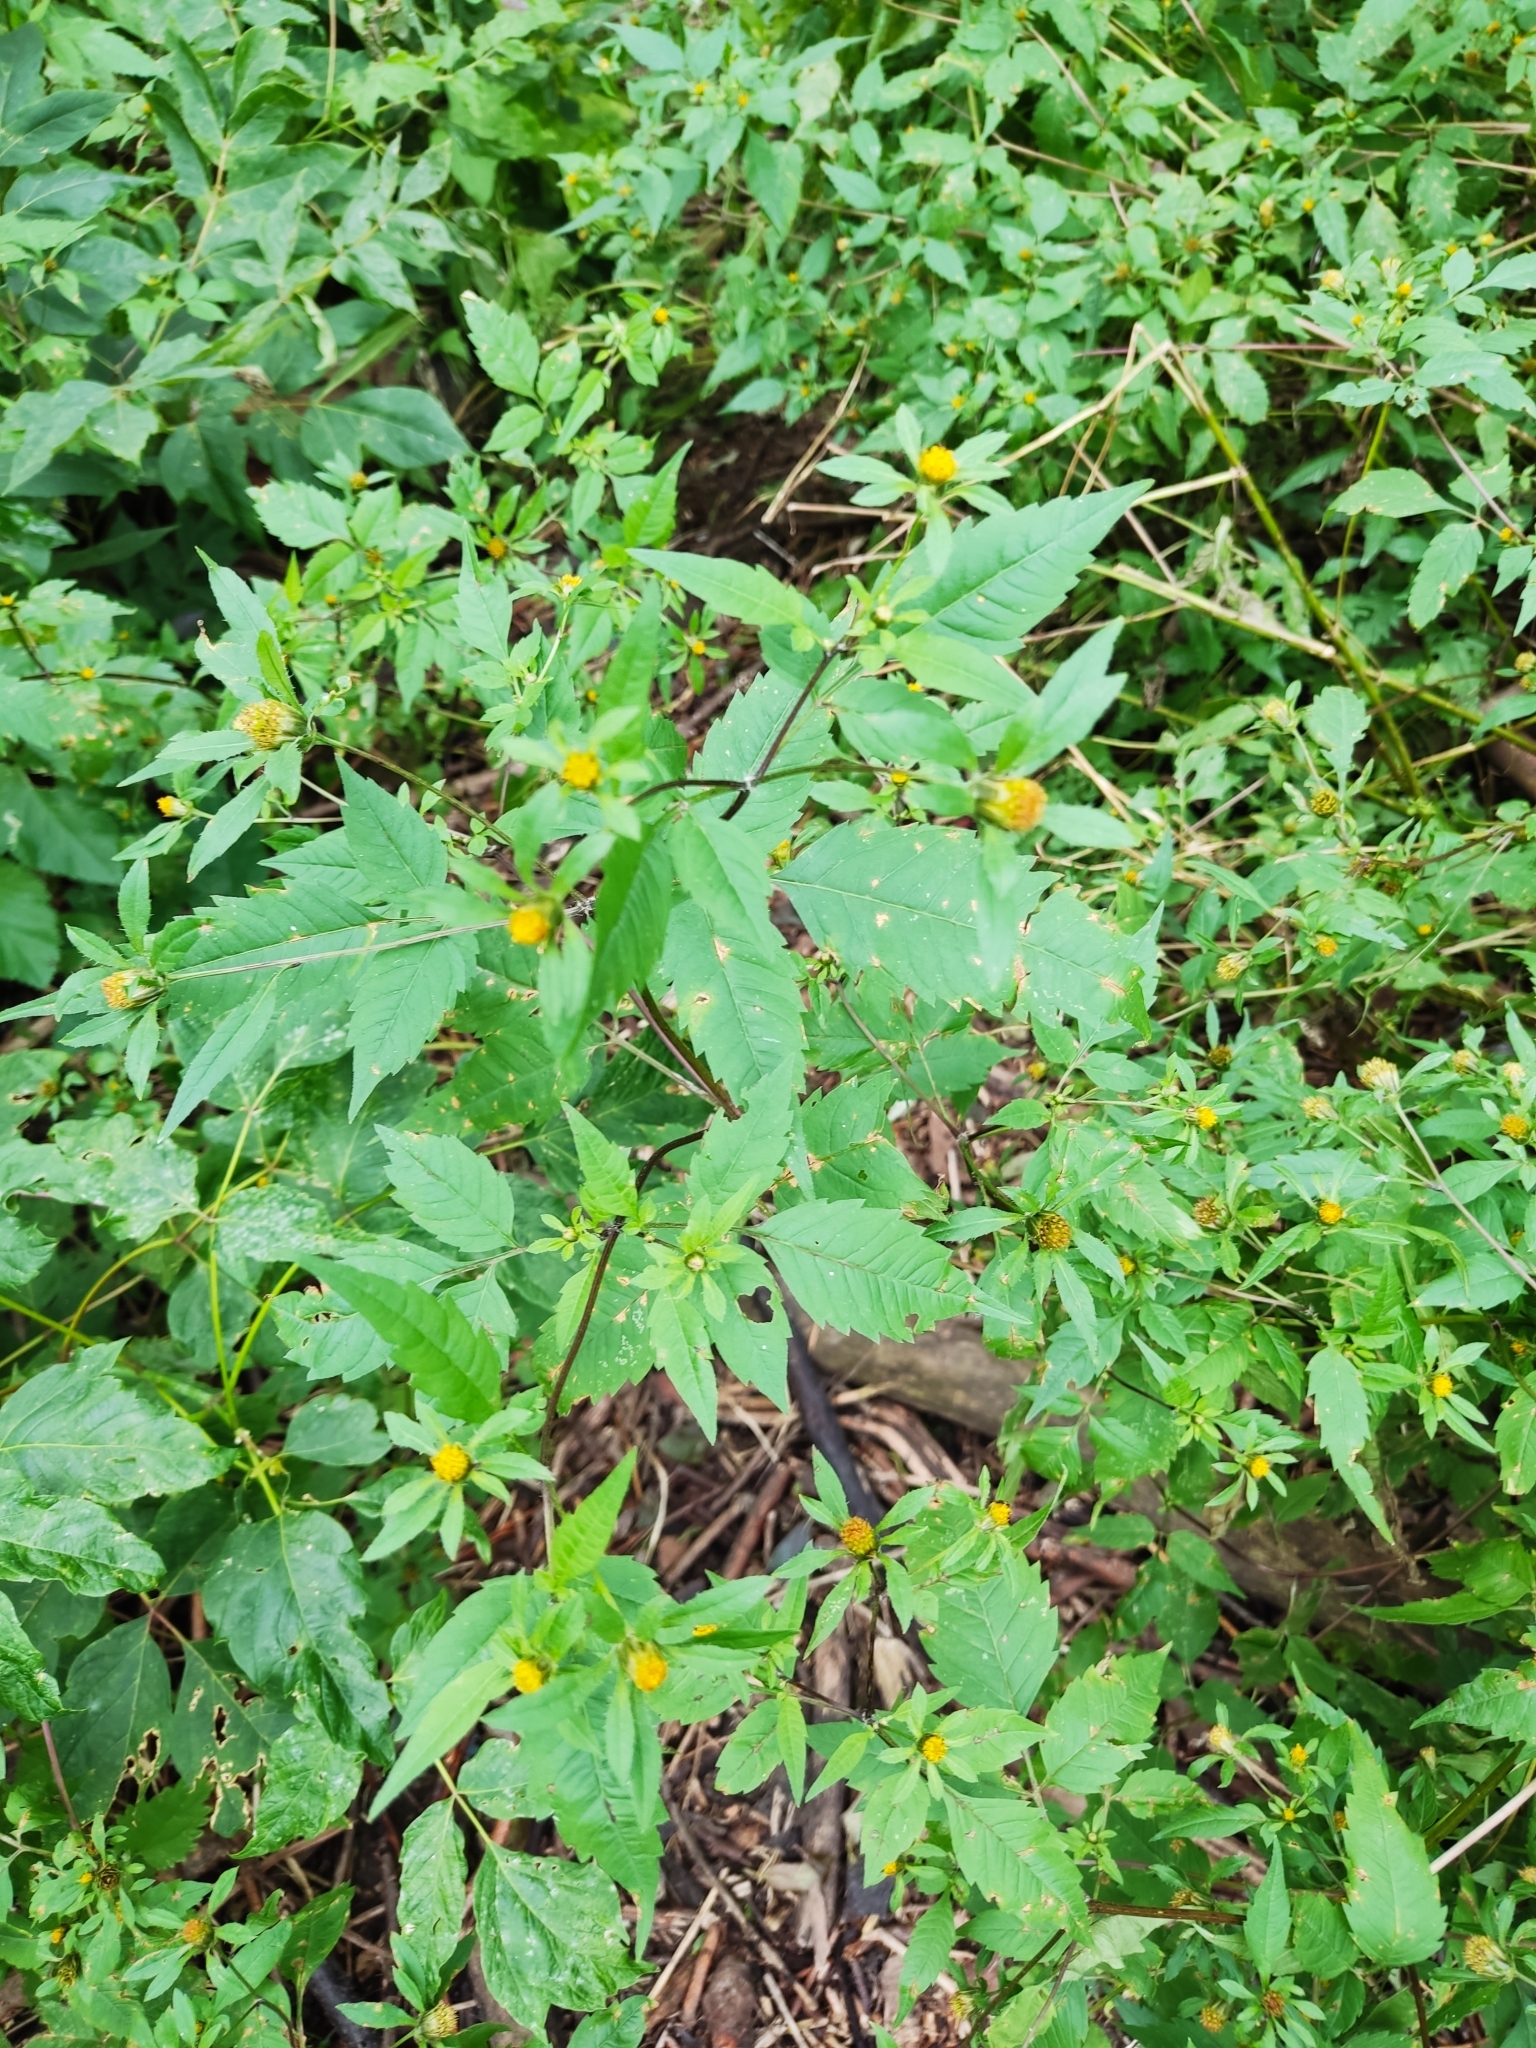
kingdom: Plantae
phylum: Tracheophyta
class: Magnoliopsida
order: Asterales
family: Asteraceae
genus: Bidens
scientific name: Bidens frondosa
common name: Beggarticks
